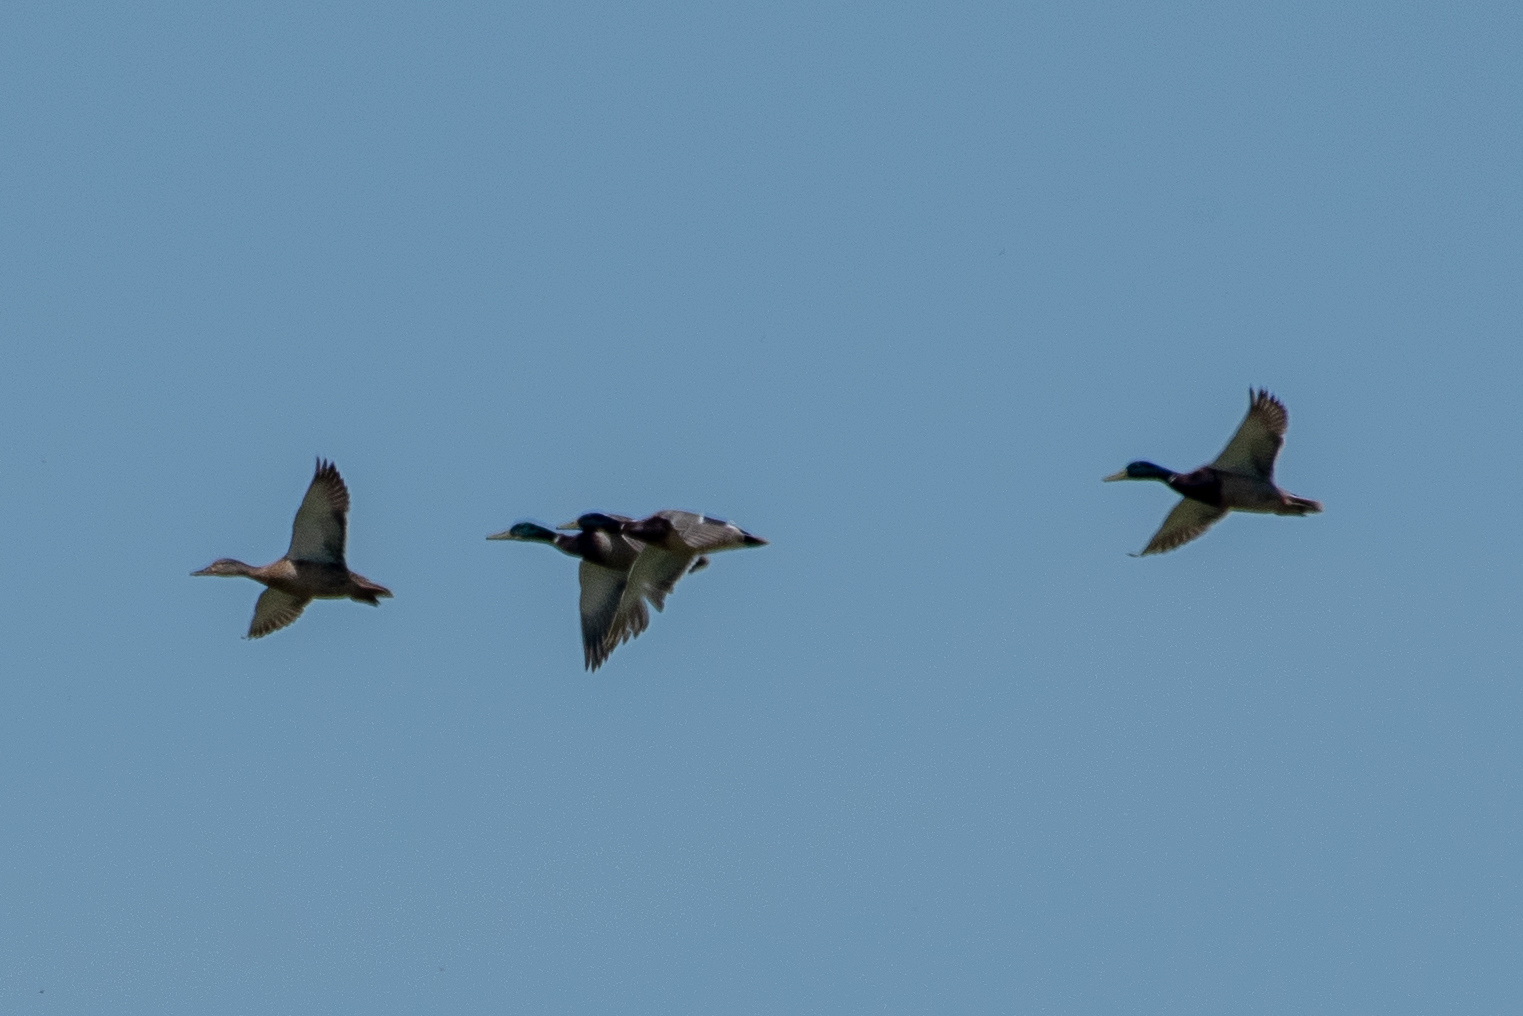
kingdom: Animalia
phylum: Chordata
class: Aves
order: Anseriformes
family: Anatidae
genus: Anas
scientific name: Anas platyrhynchos
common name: Mallard
